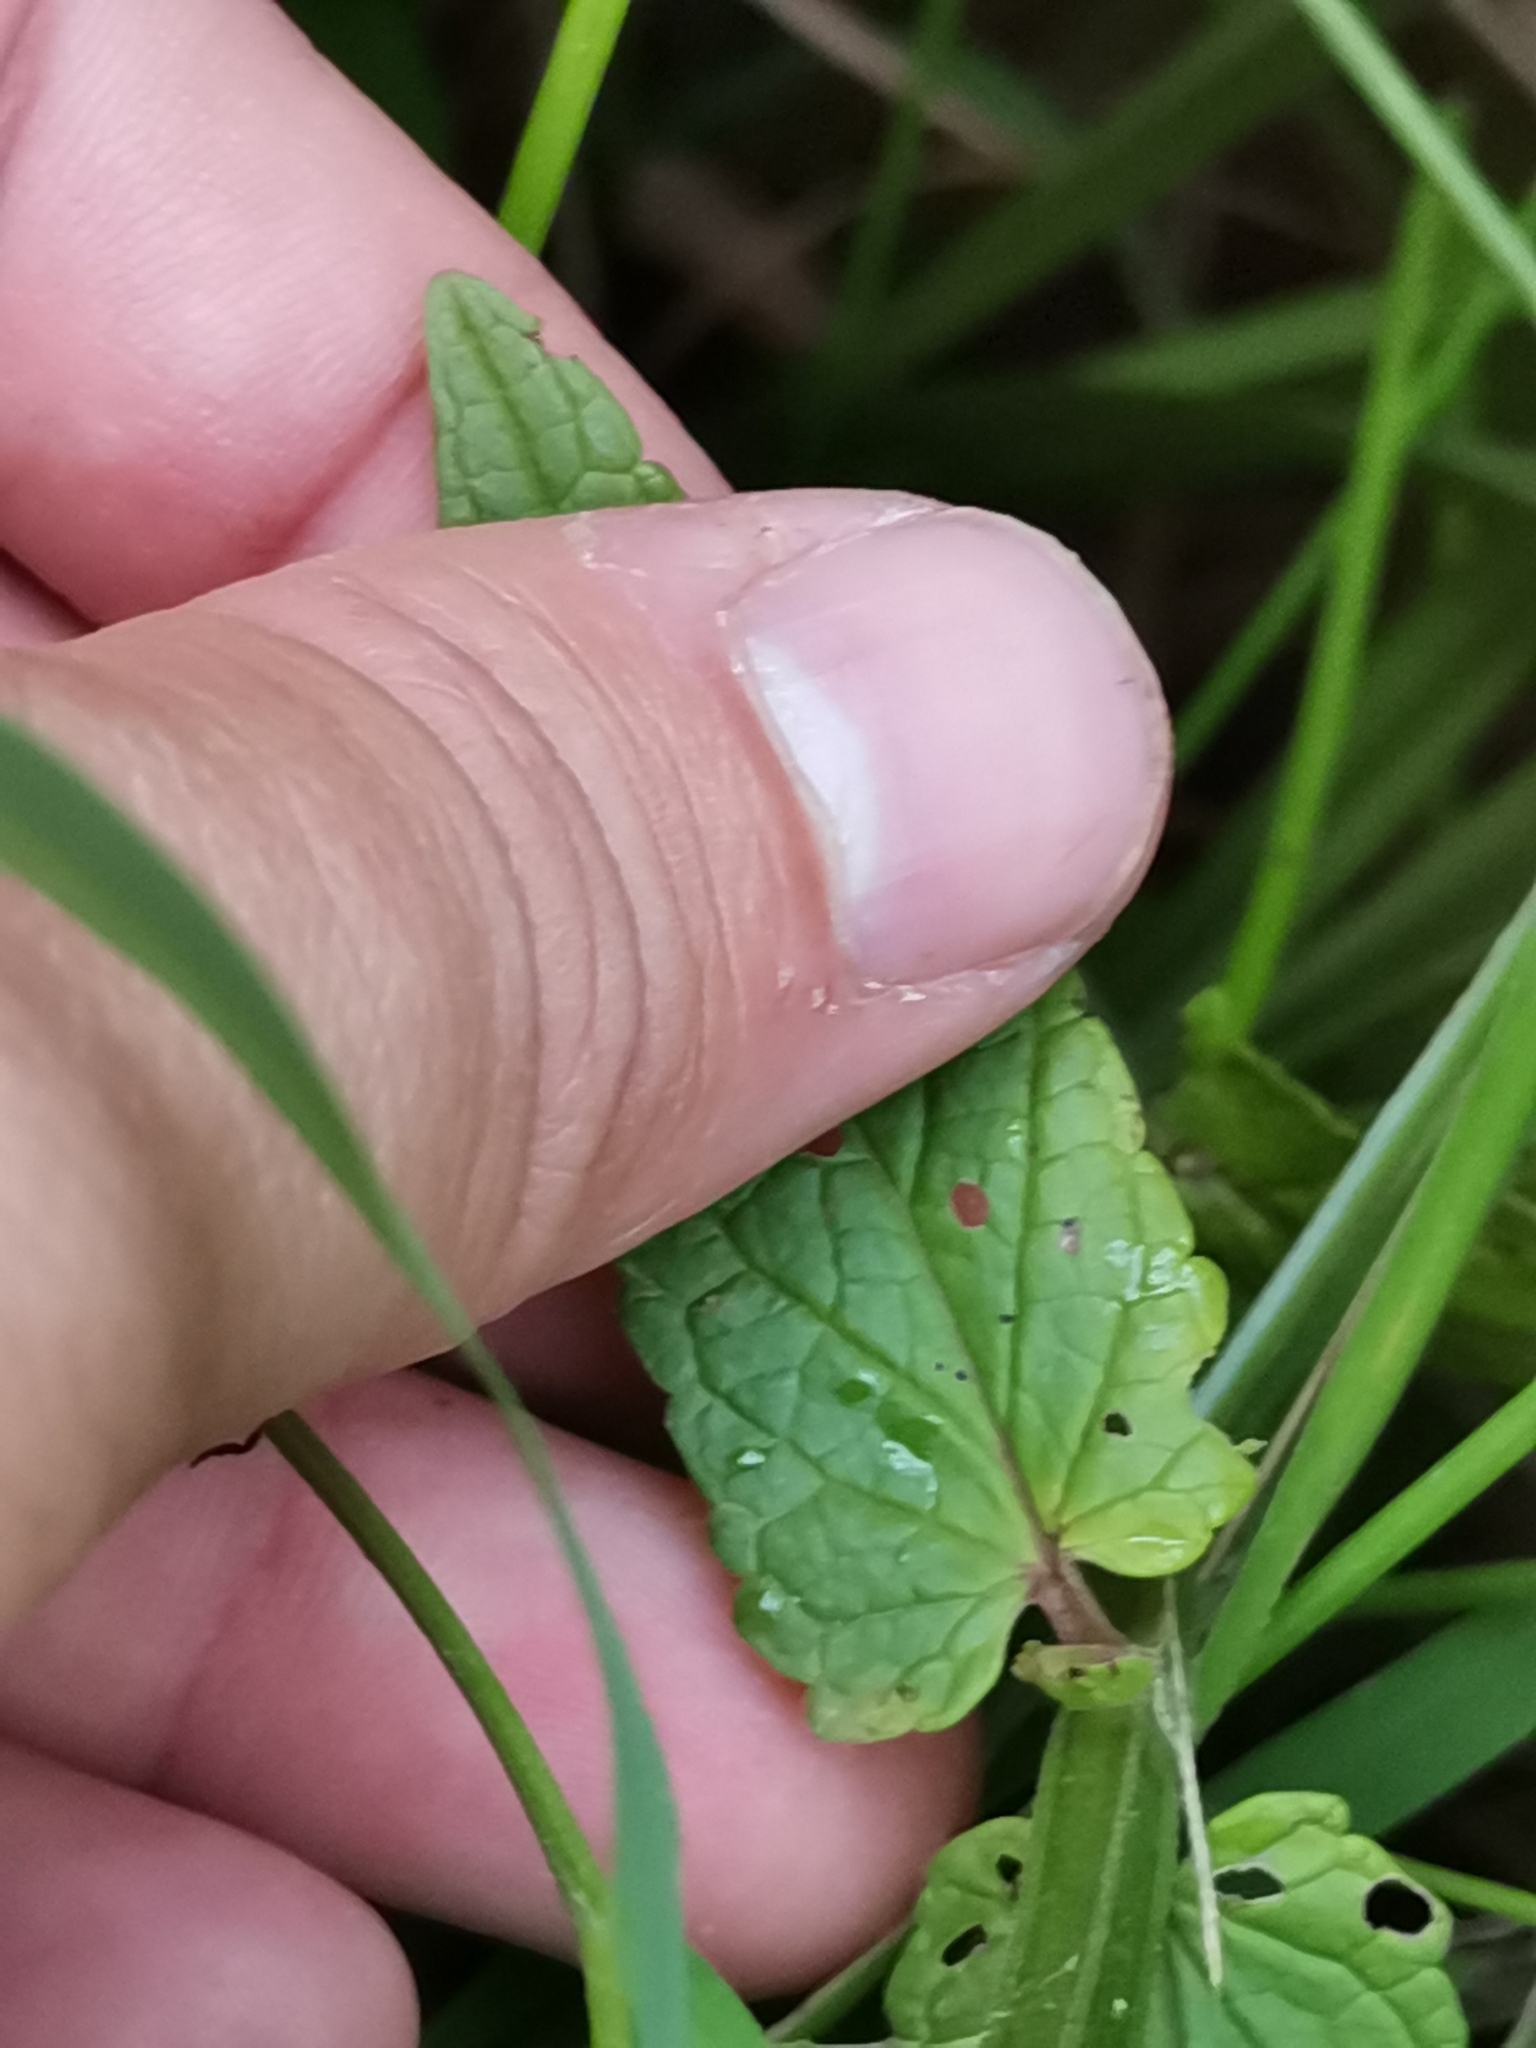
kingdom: Plantae
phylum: Tracheophyta
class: Magnoliopsida
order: Lamiales
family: Lamiaceae
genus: Scutellaria
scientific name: Scutellaria galericulata
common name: Skullcap
